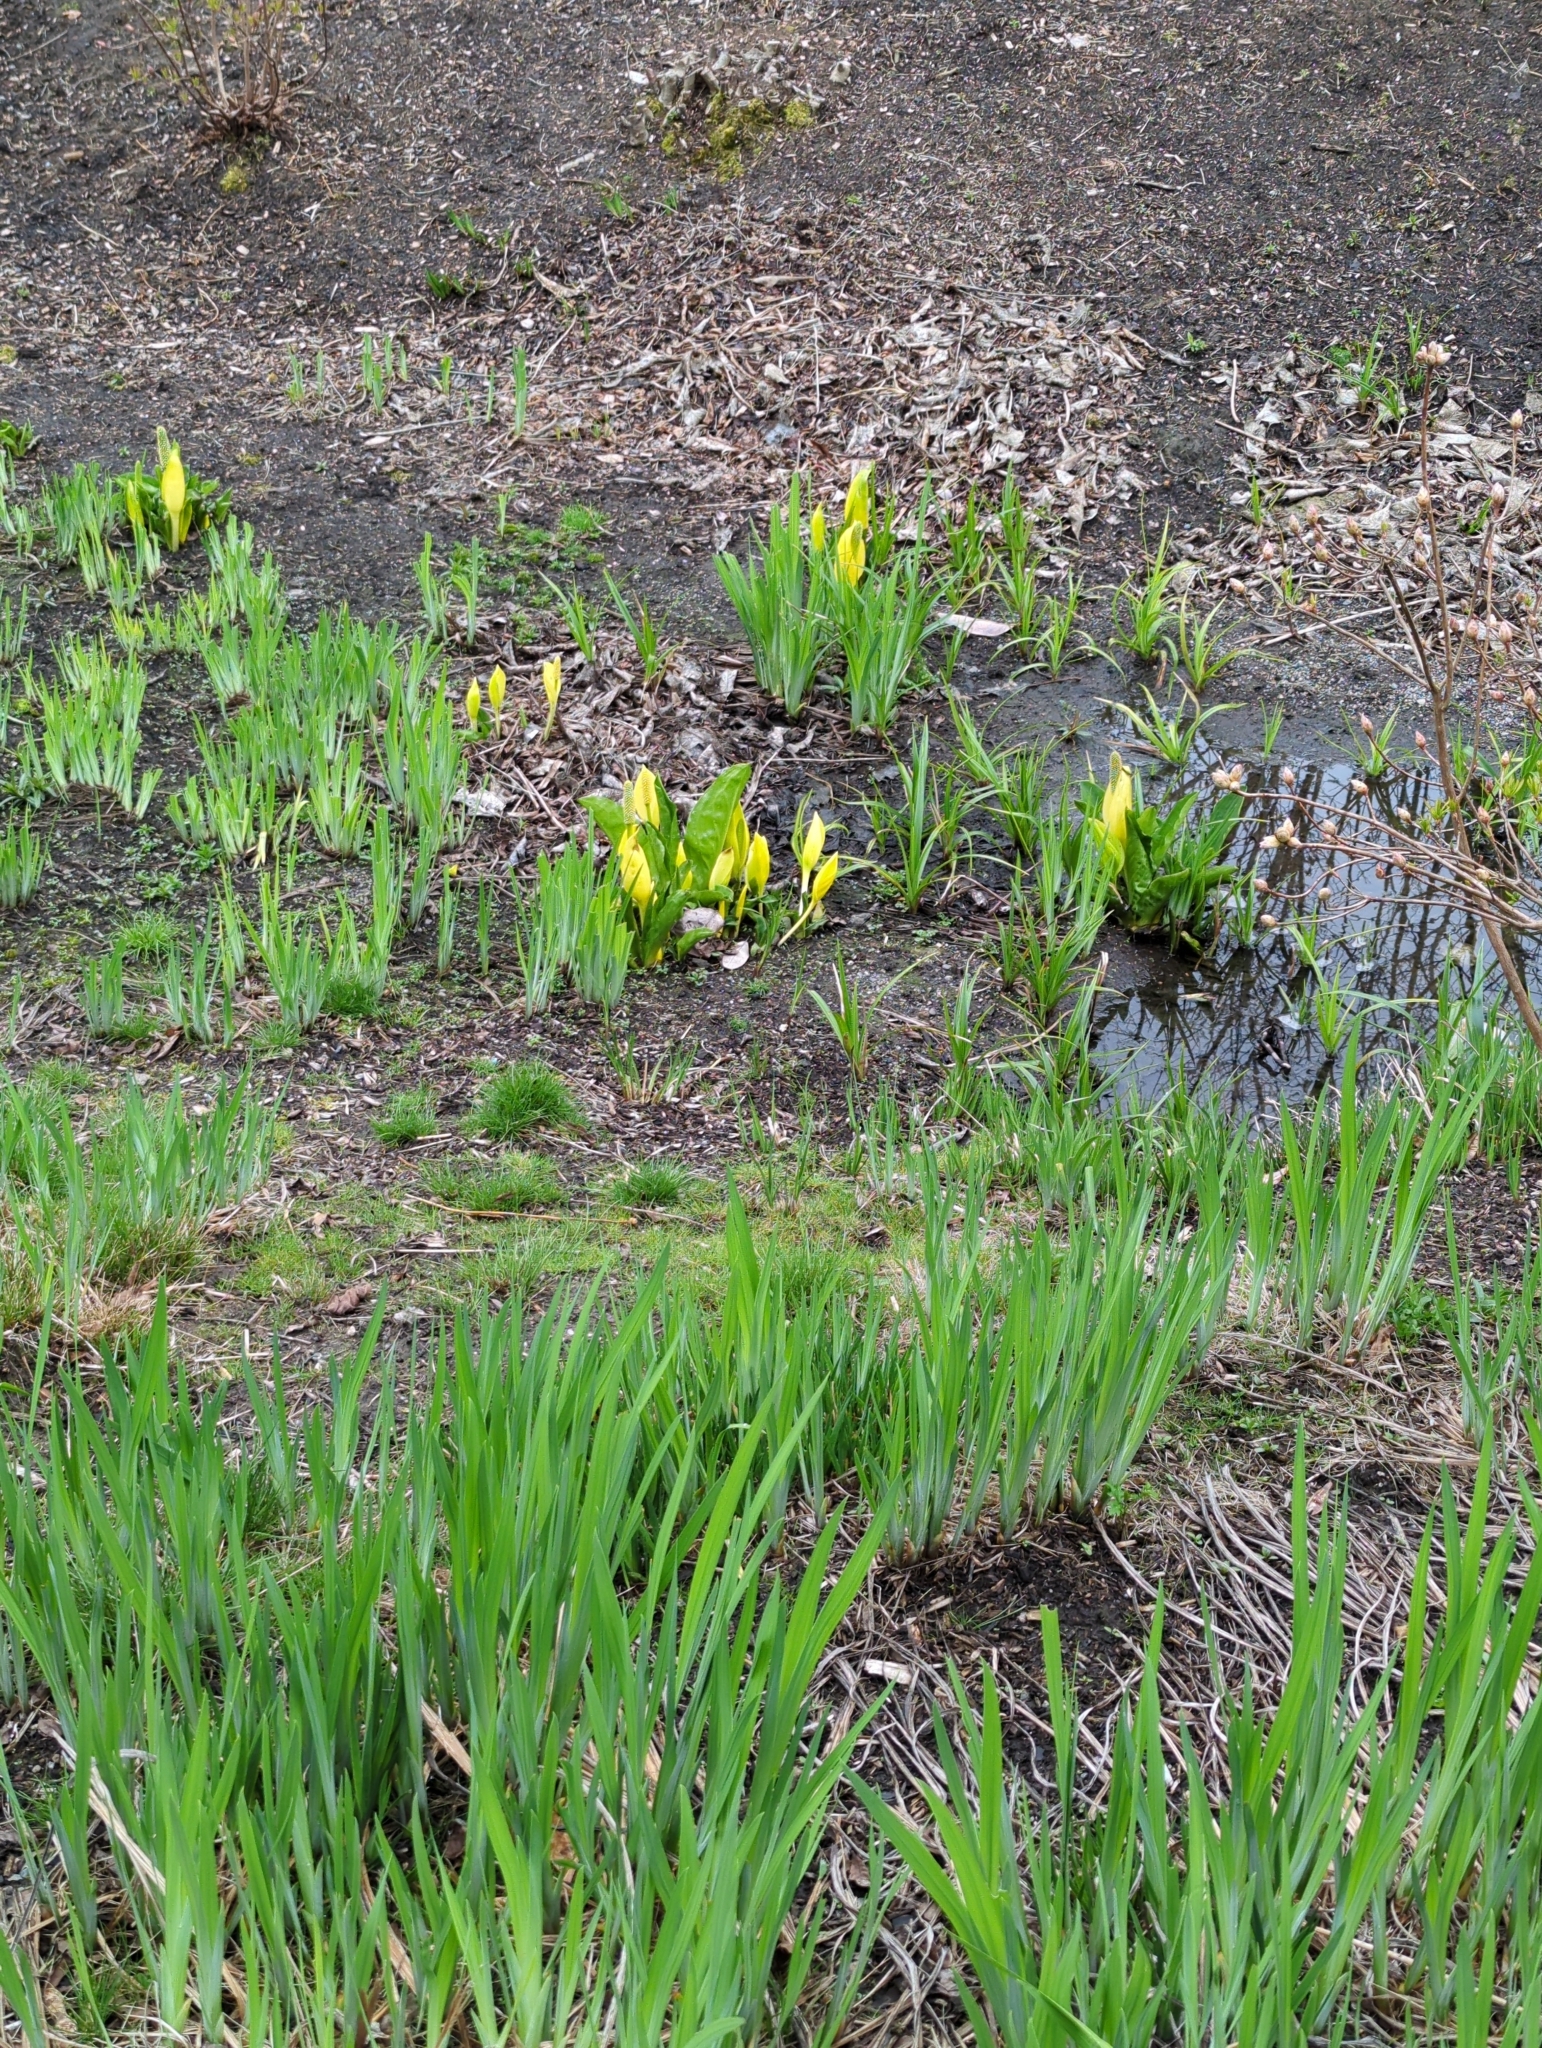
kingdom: Plantae
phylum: Tracheophyta
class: Liliopsida
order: Alismatales
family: Araceae
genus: Lysichiton
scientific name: Lysichiton americanus
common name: American skunk cabbage
